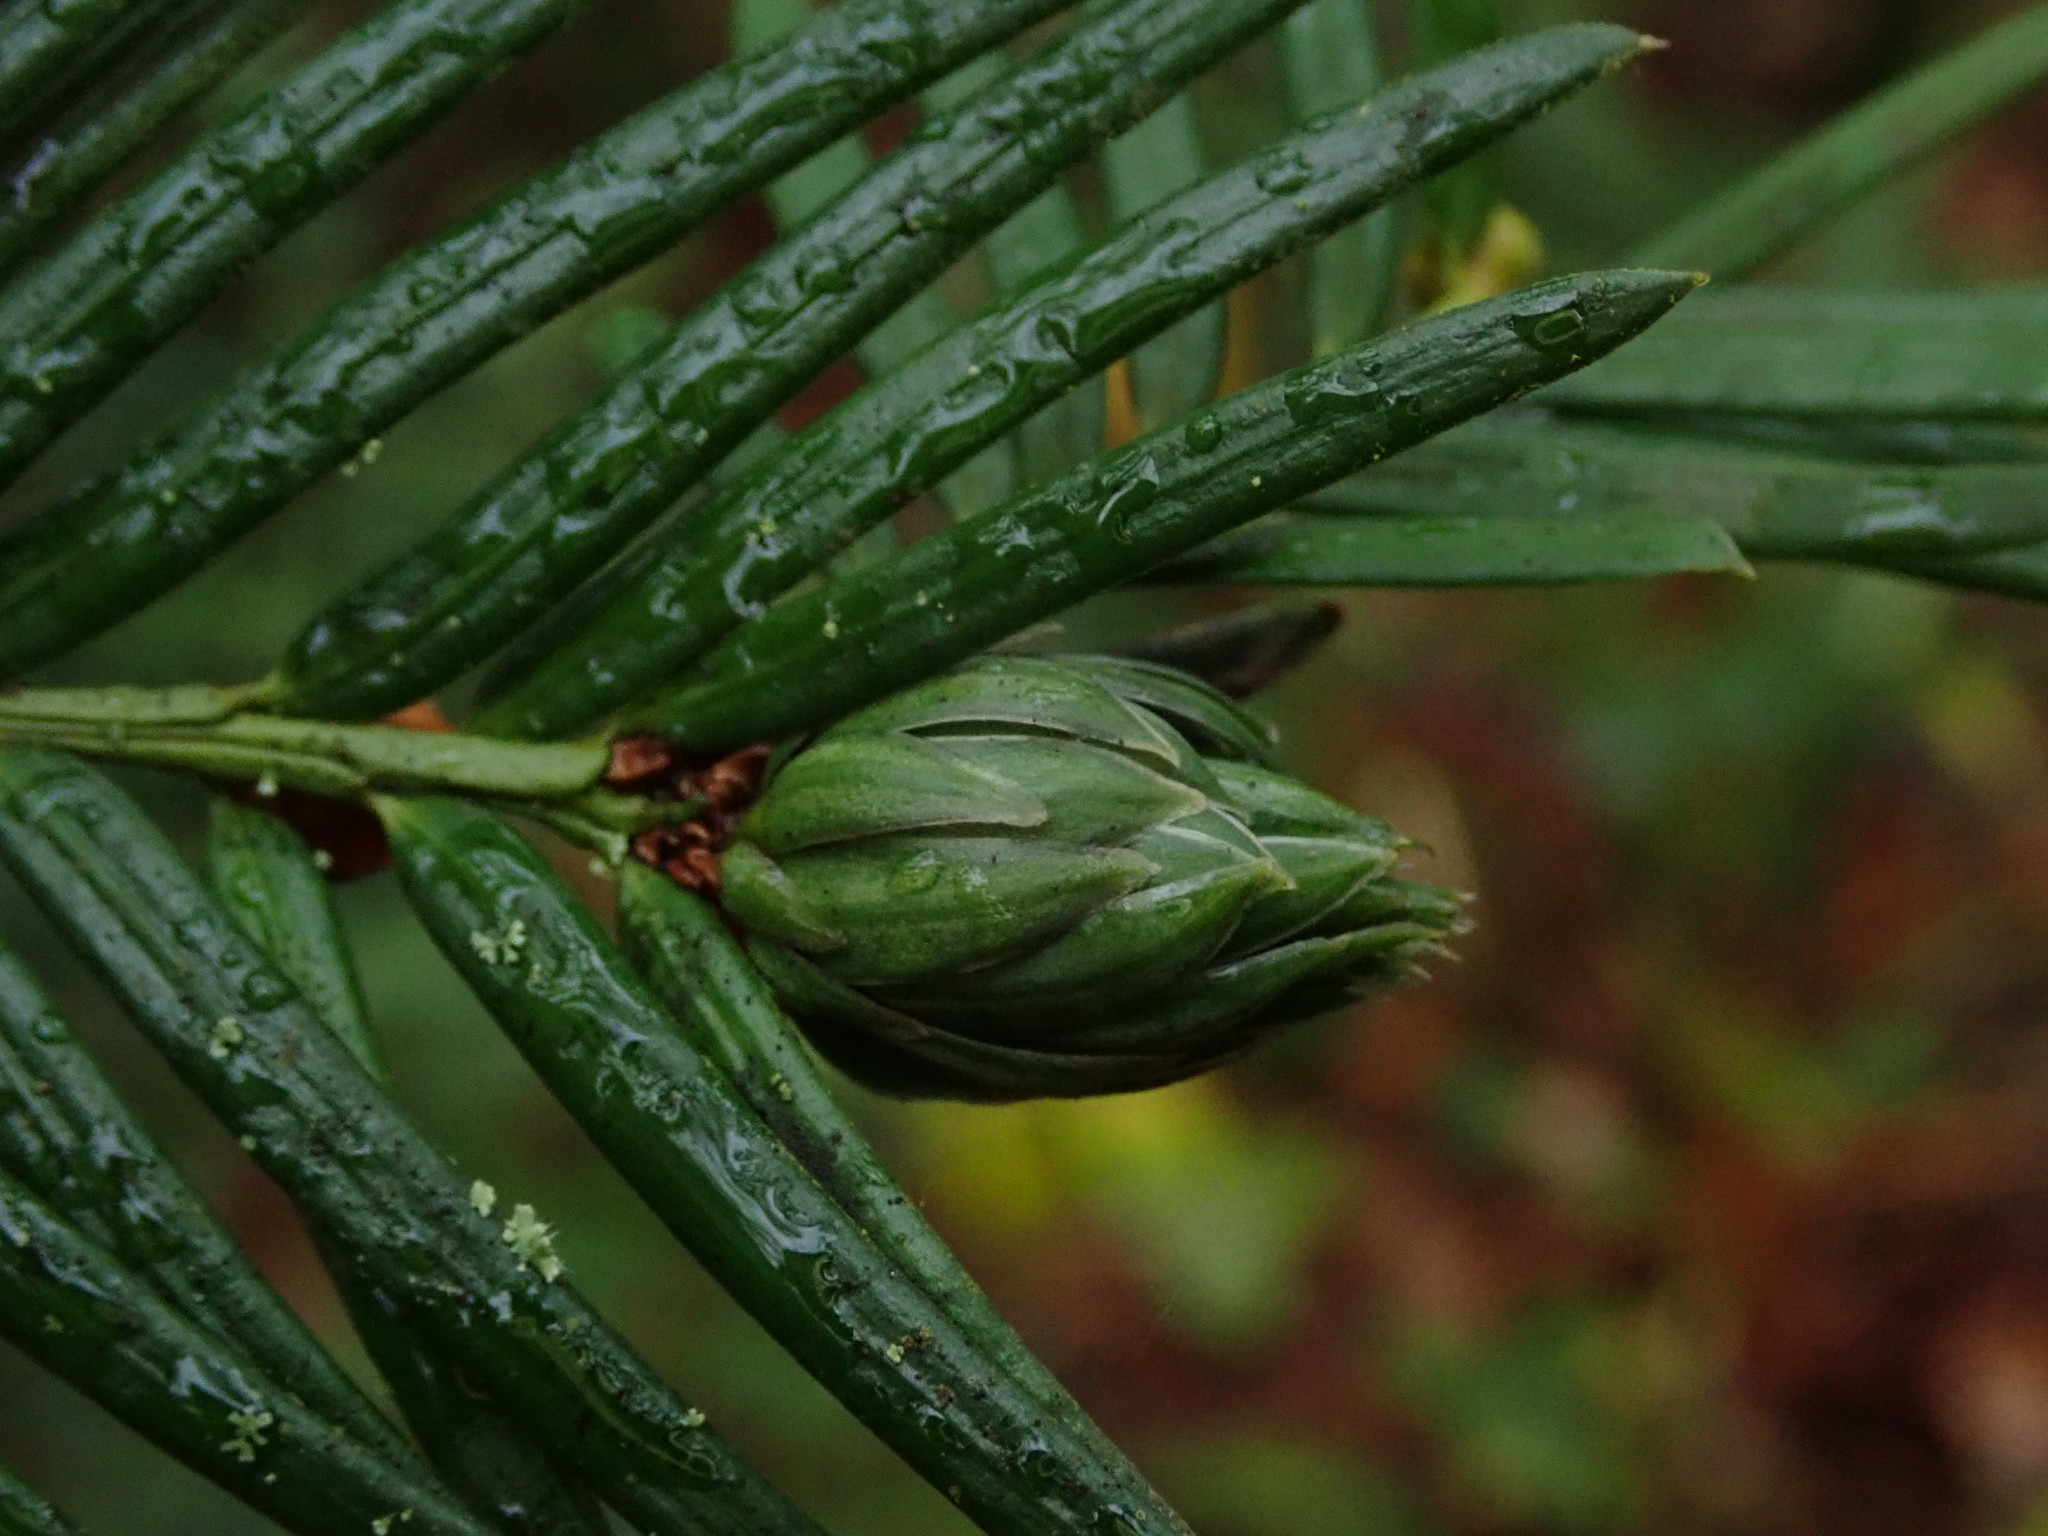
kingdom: Animalia
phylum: Arthropoda
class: Insecta
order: Diptera
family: Cecidomyiidae
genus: Taxomyia
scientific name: Taxomyia taxi
